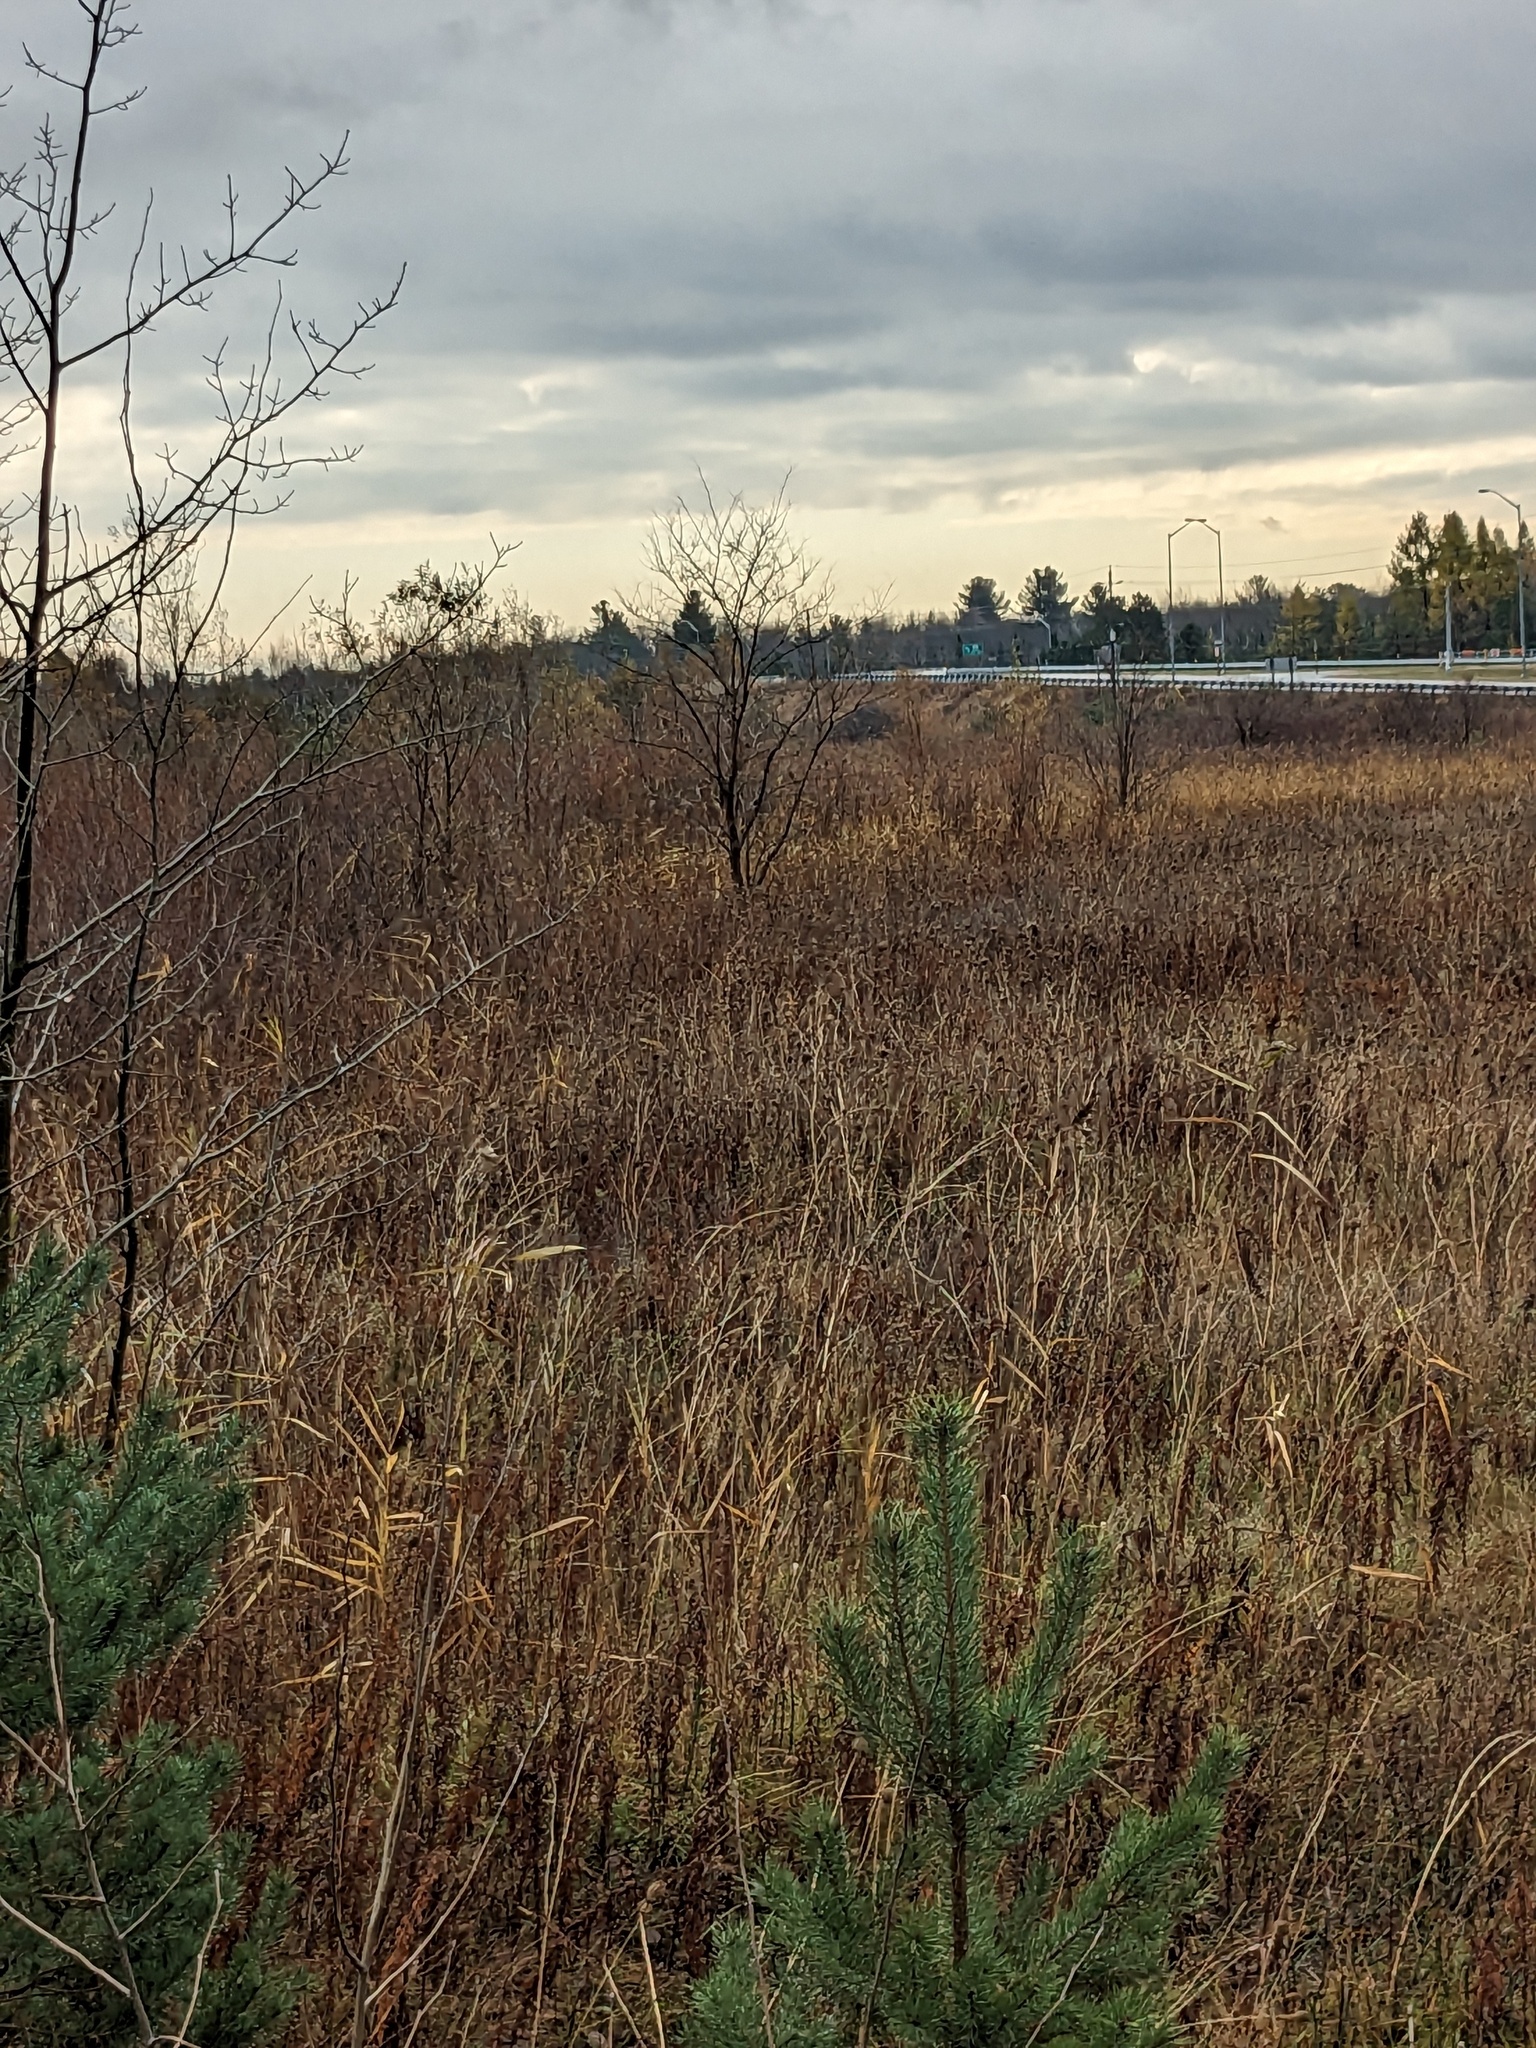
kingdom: Plantae
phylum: Tracheophyta
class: Liliopsida
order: Poales
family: Poaceae
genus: Phragmites
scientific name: Phragmites australis
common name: Common reed
